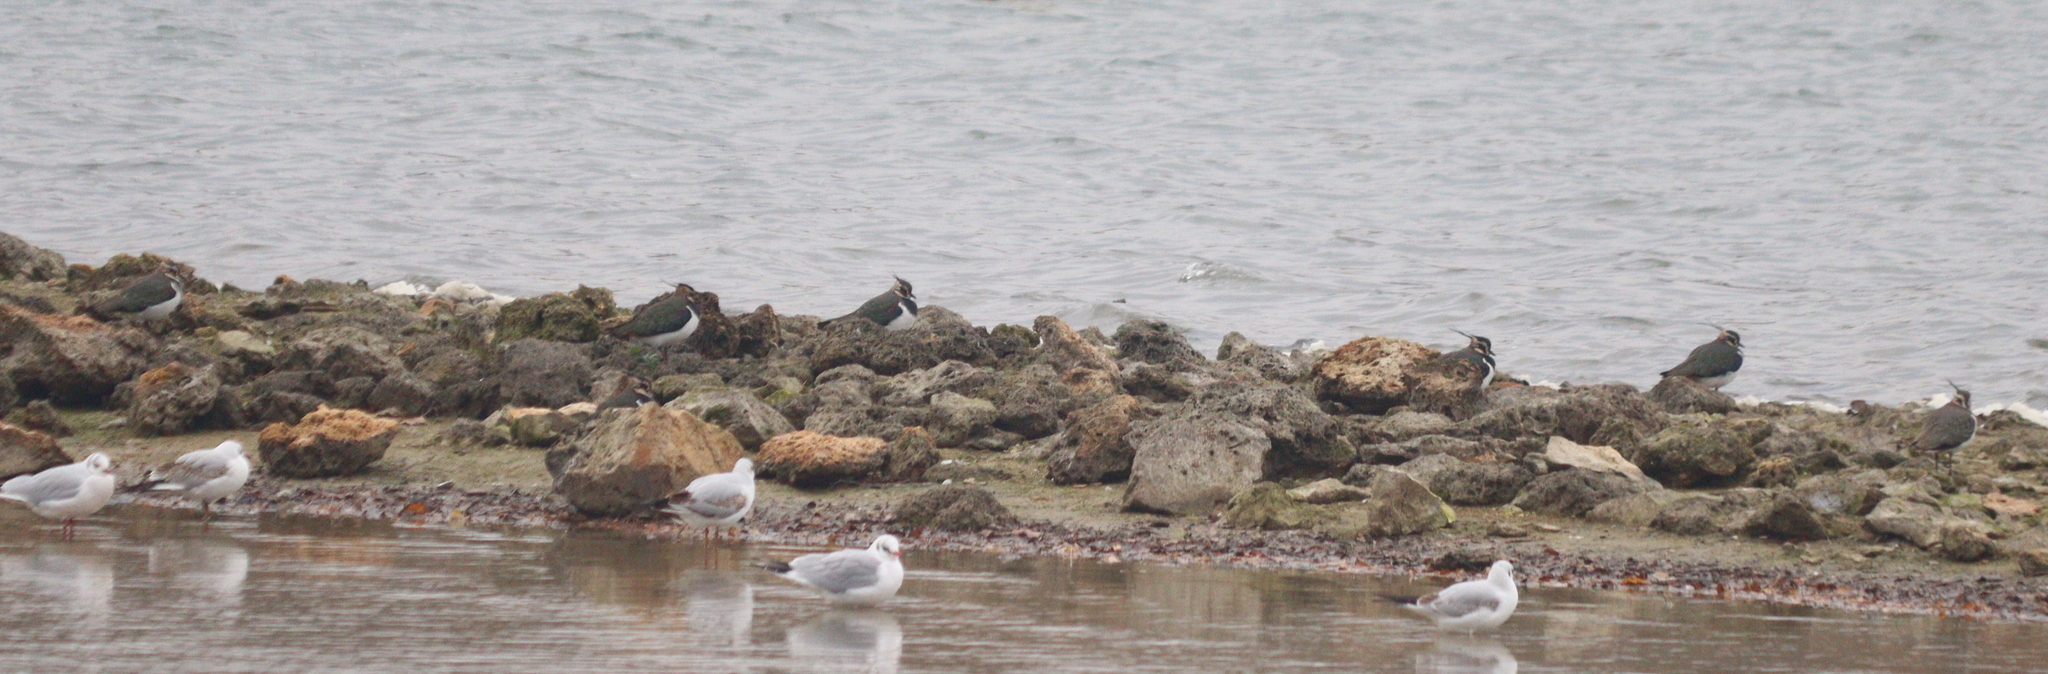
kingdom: Animalia
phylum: Chordata
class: Aves
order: Charadriiformes
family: Charadriidae
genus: Vanellus
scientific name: Vanellus vanellus
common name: Northern lapwing
